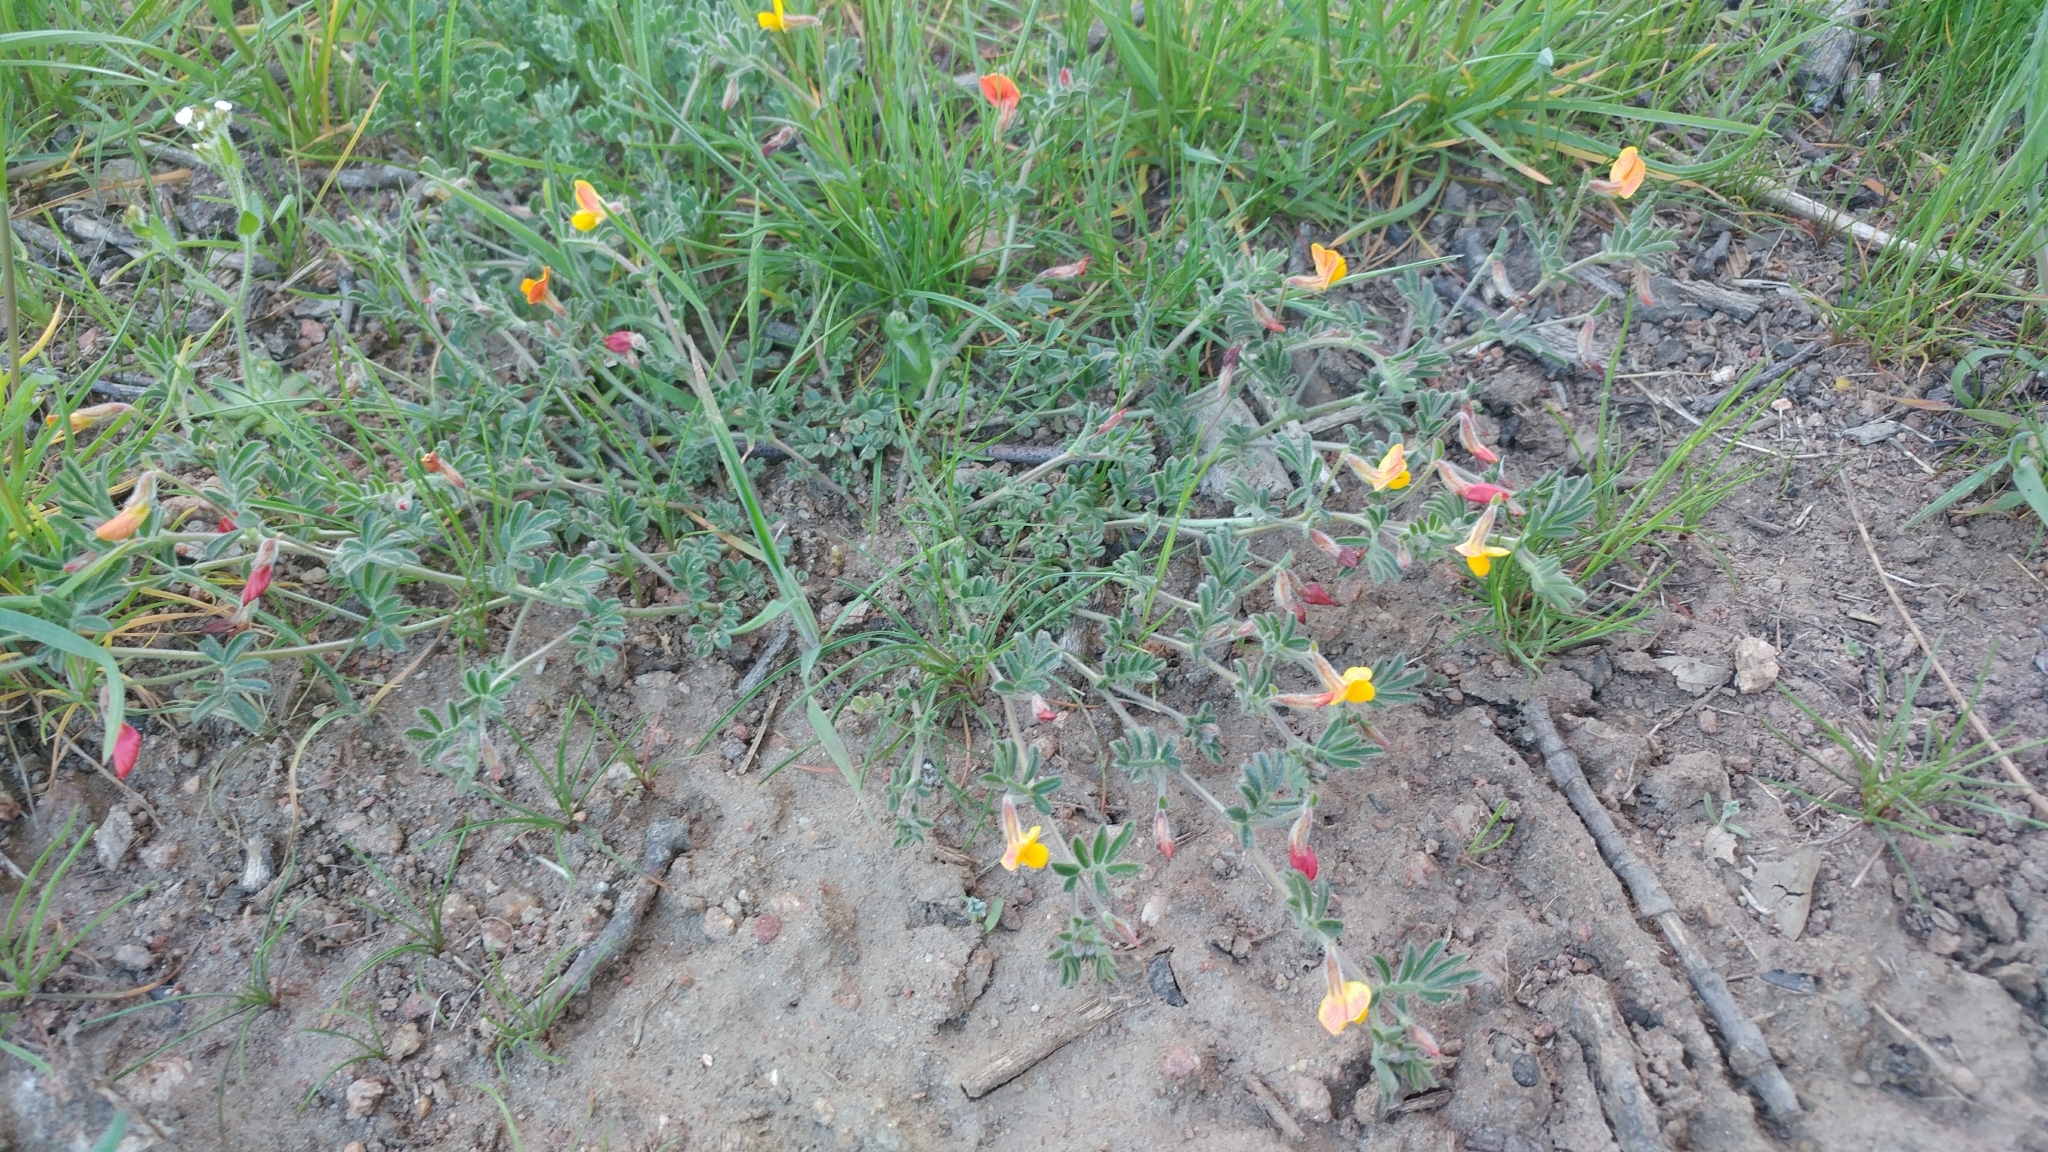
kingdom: Plantae
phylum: Tracheophyta
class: Magnoliopsida
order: Fabales
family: Fabaceae
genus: Acmispon
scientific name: Acmispon strigosus
